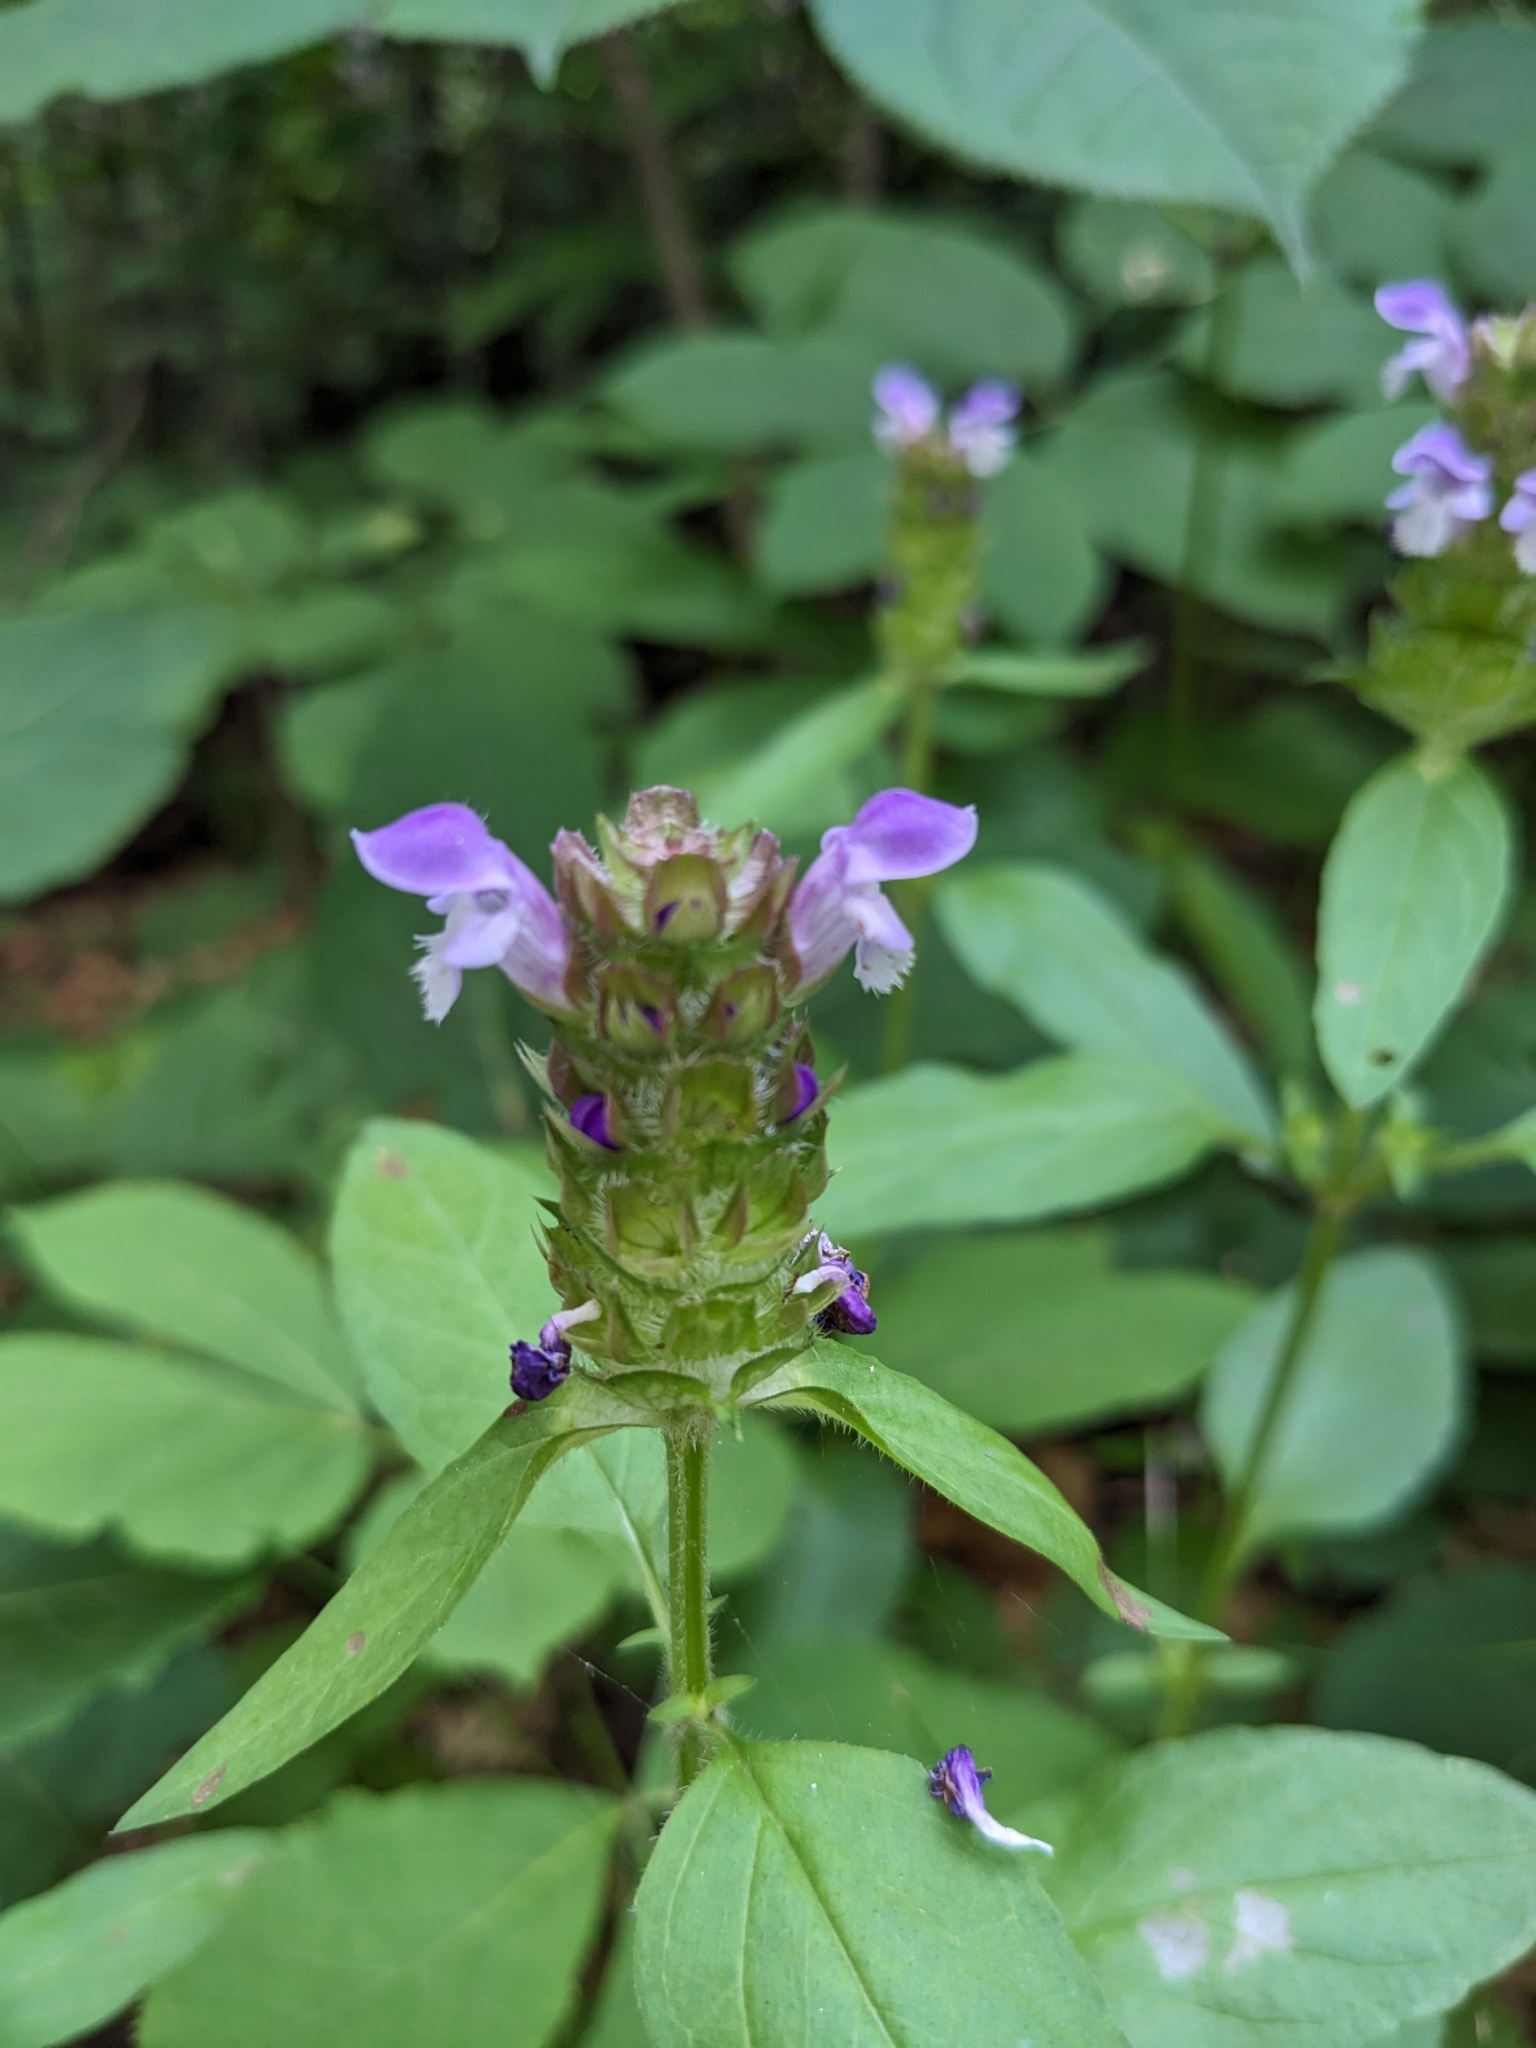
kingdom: Plantae
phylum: Tracheophyta
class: Magnoliopsida
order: Lamiales
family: Lamiaceae
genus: Prunella
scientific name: Prunella vulgaris
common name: Heal-all
